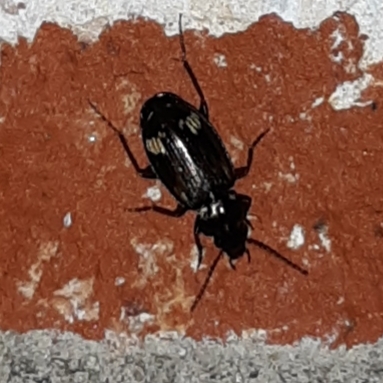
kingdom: Animalia
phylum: Arthropoda
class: Insecta
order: Coleoptera
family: Carabidae
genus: Tetragonoderus
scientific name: Tetragonoderus intersectus
